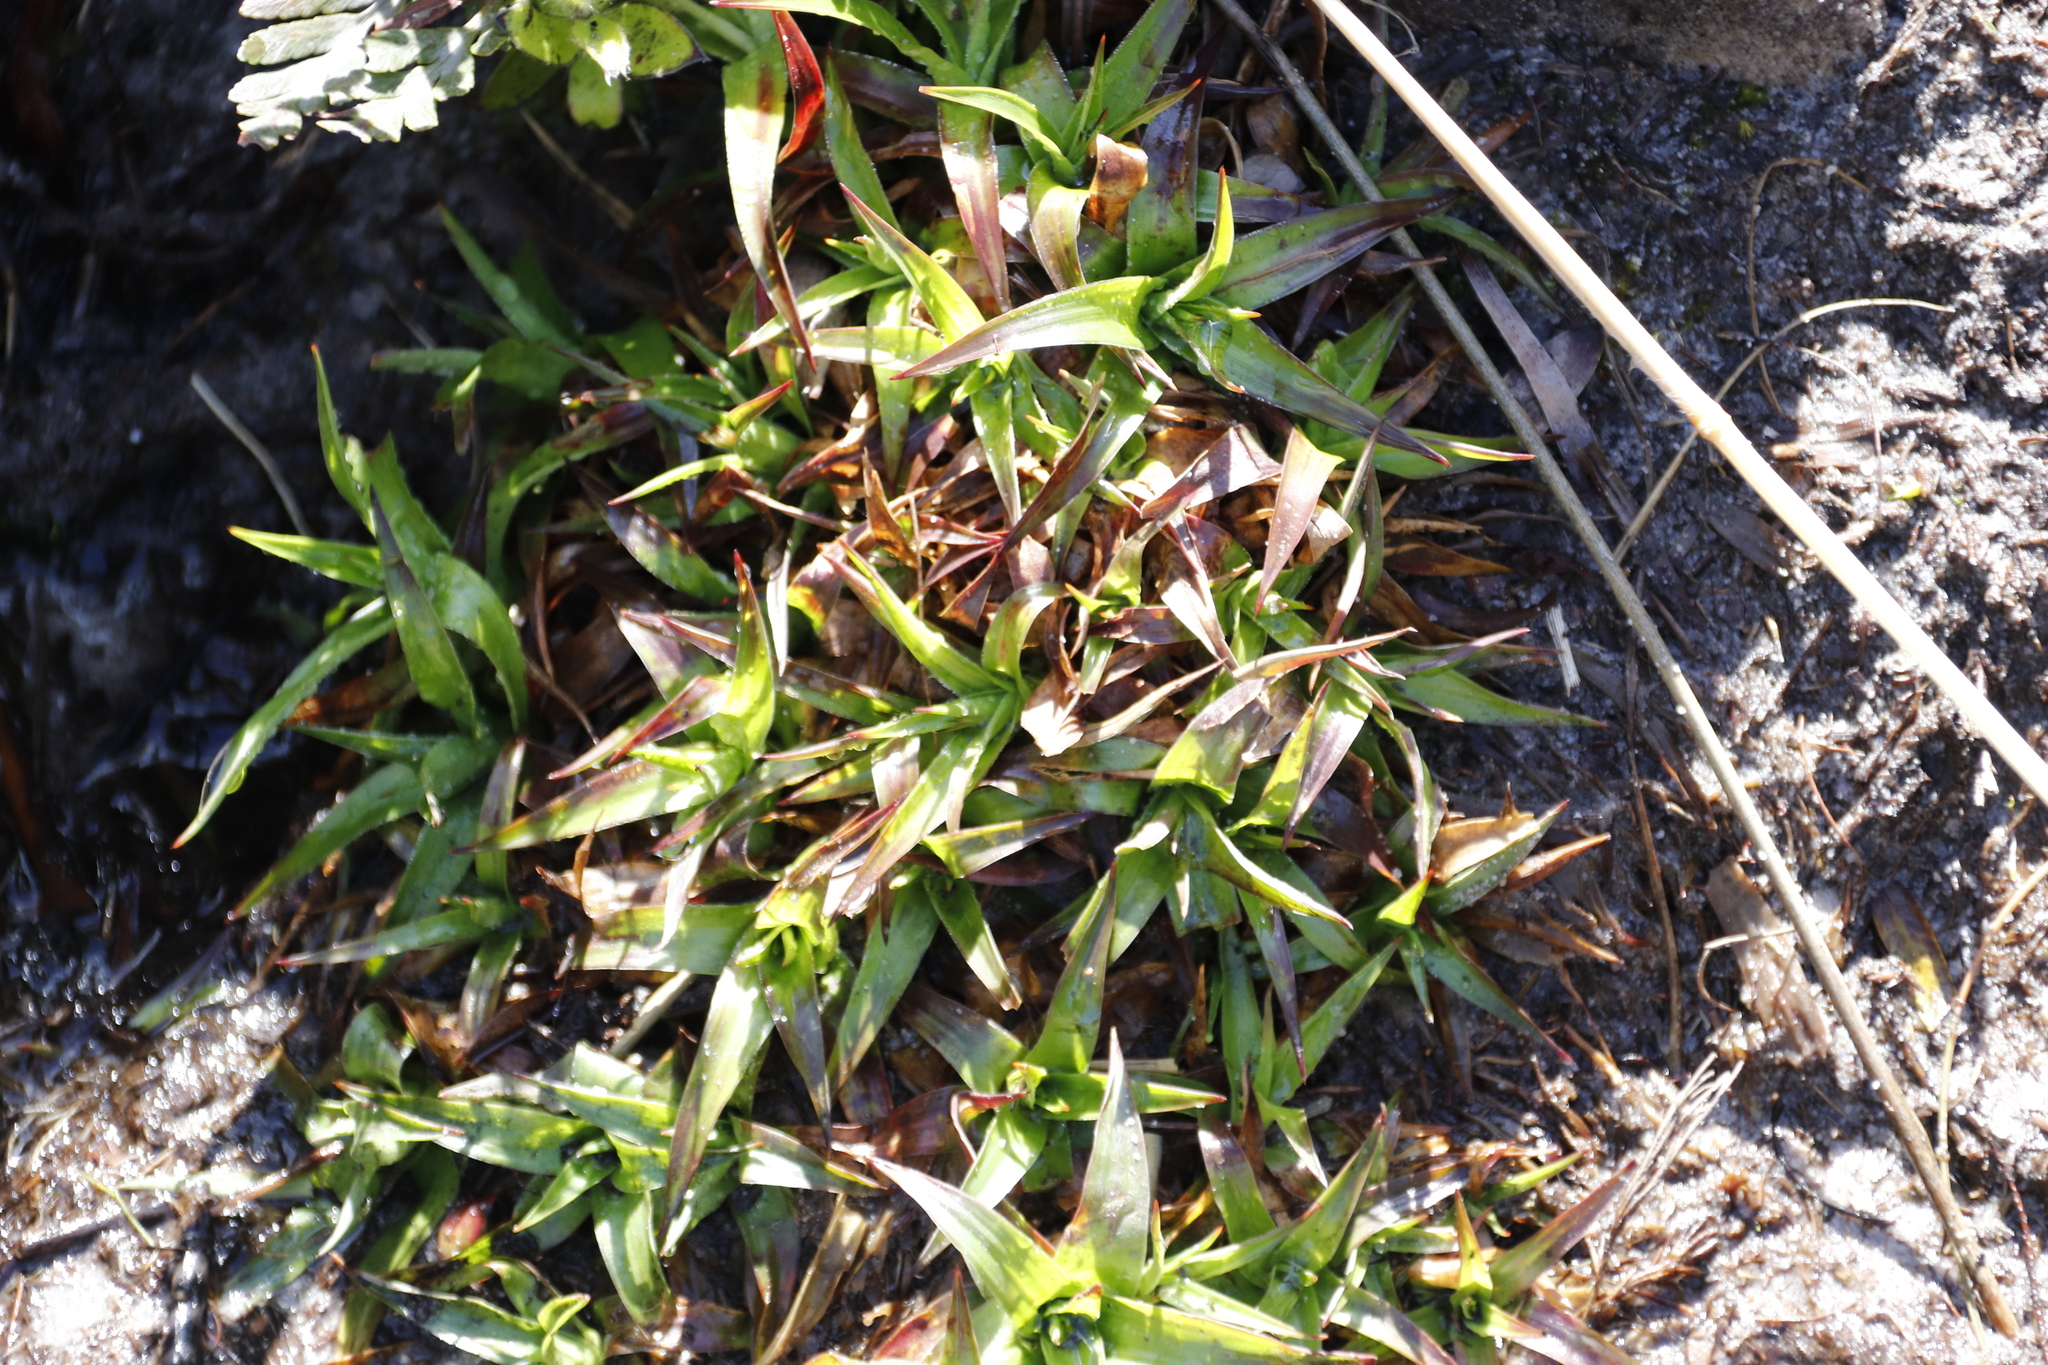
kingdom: Plantae
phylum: Tracheophyta
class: Liliopsida
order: Poales
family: Juncaceae
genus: Juncus
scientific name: Juncus lomatophyllus
